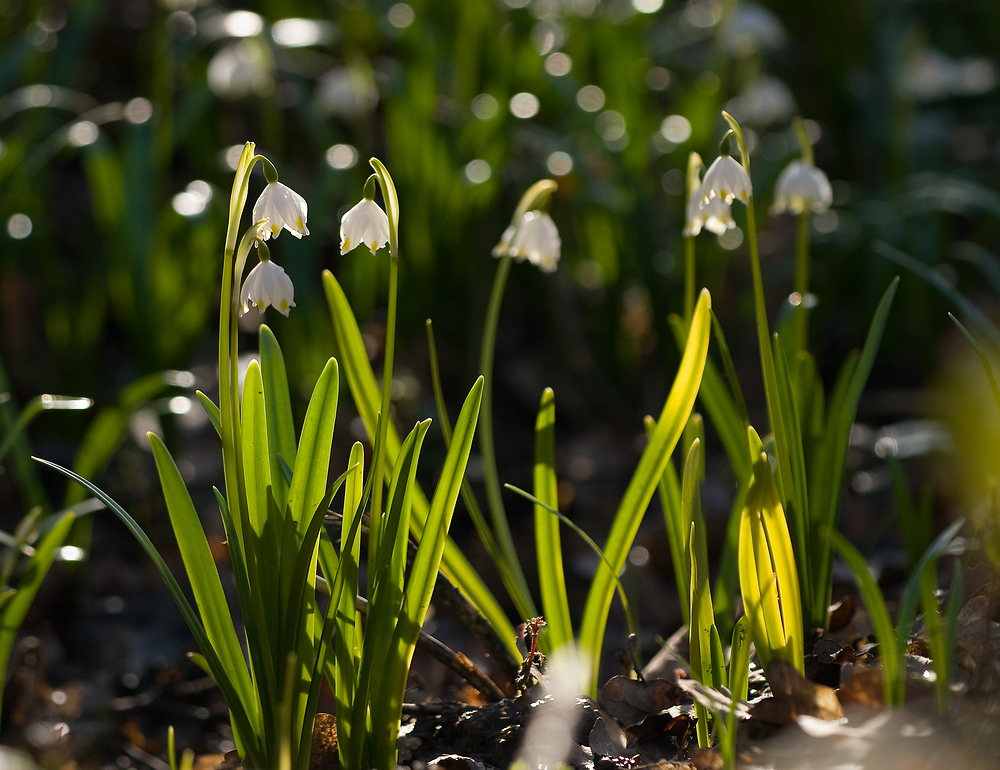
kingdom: Plantae
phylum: Tracheophyta
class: Liliopsida
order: Asparagales
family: Amaryllidaceae
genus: Leucojum
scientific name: Leucojum vernum
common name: Spring snowflake
